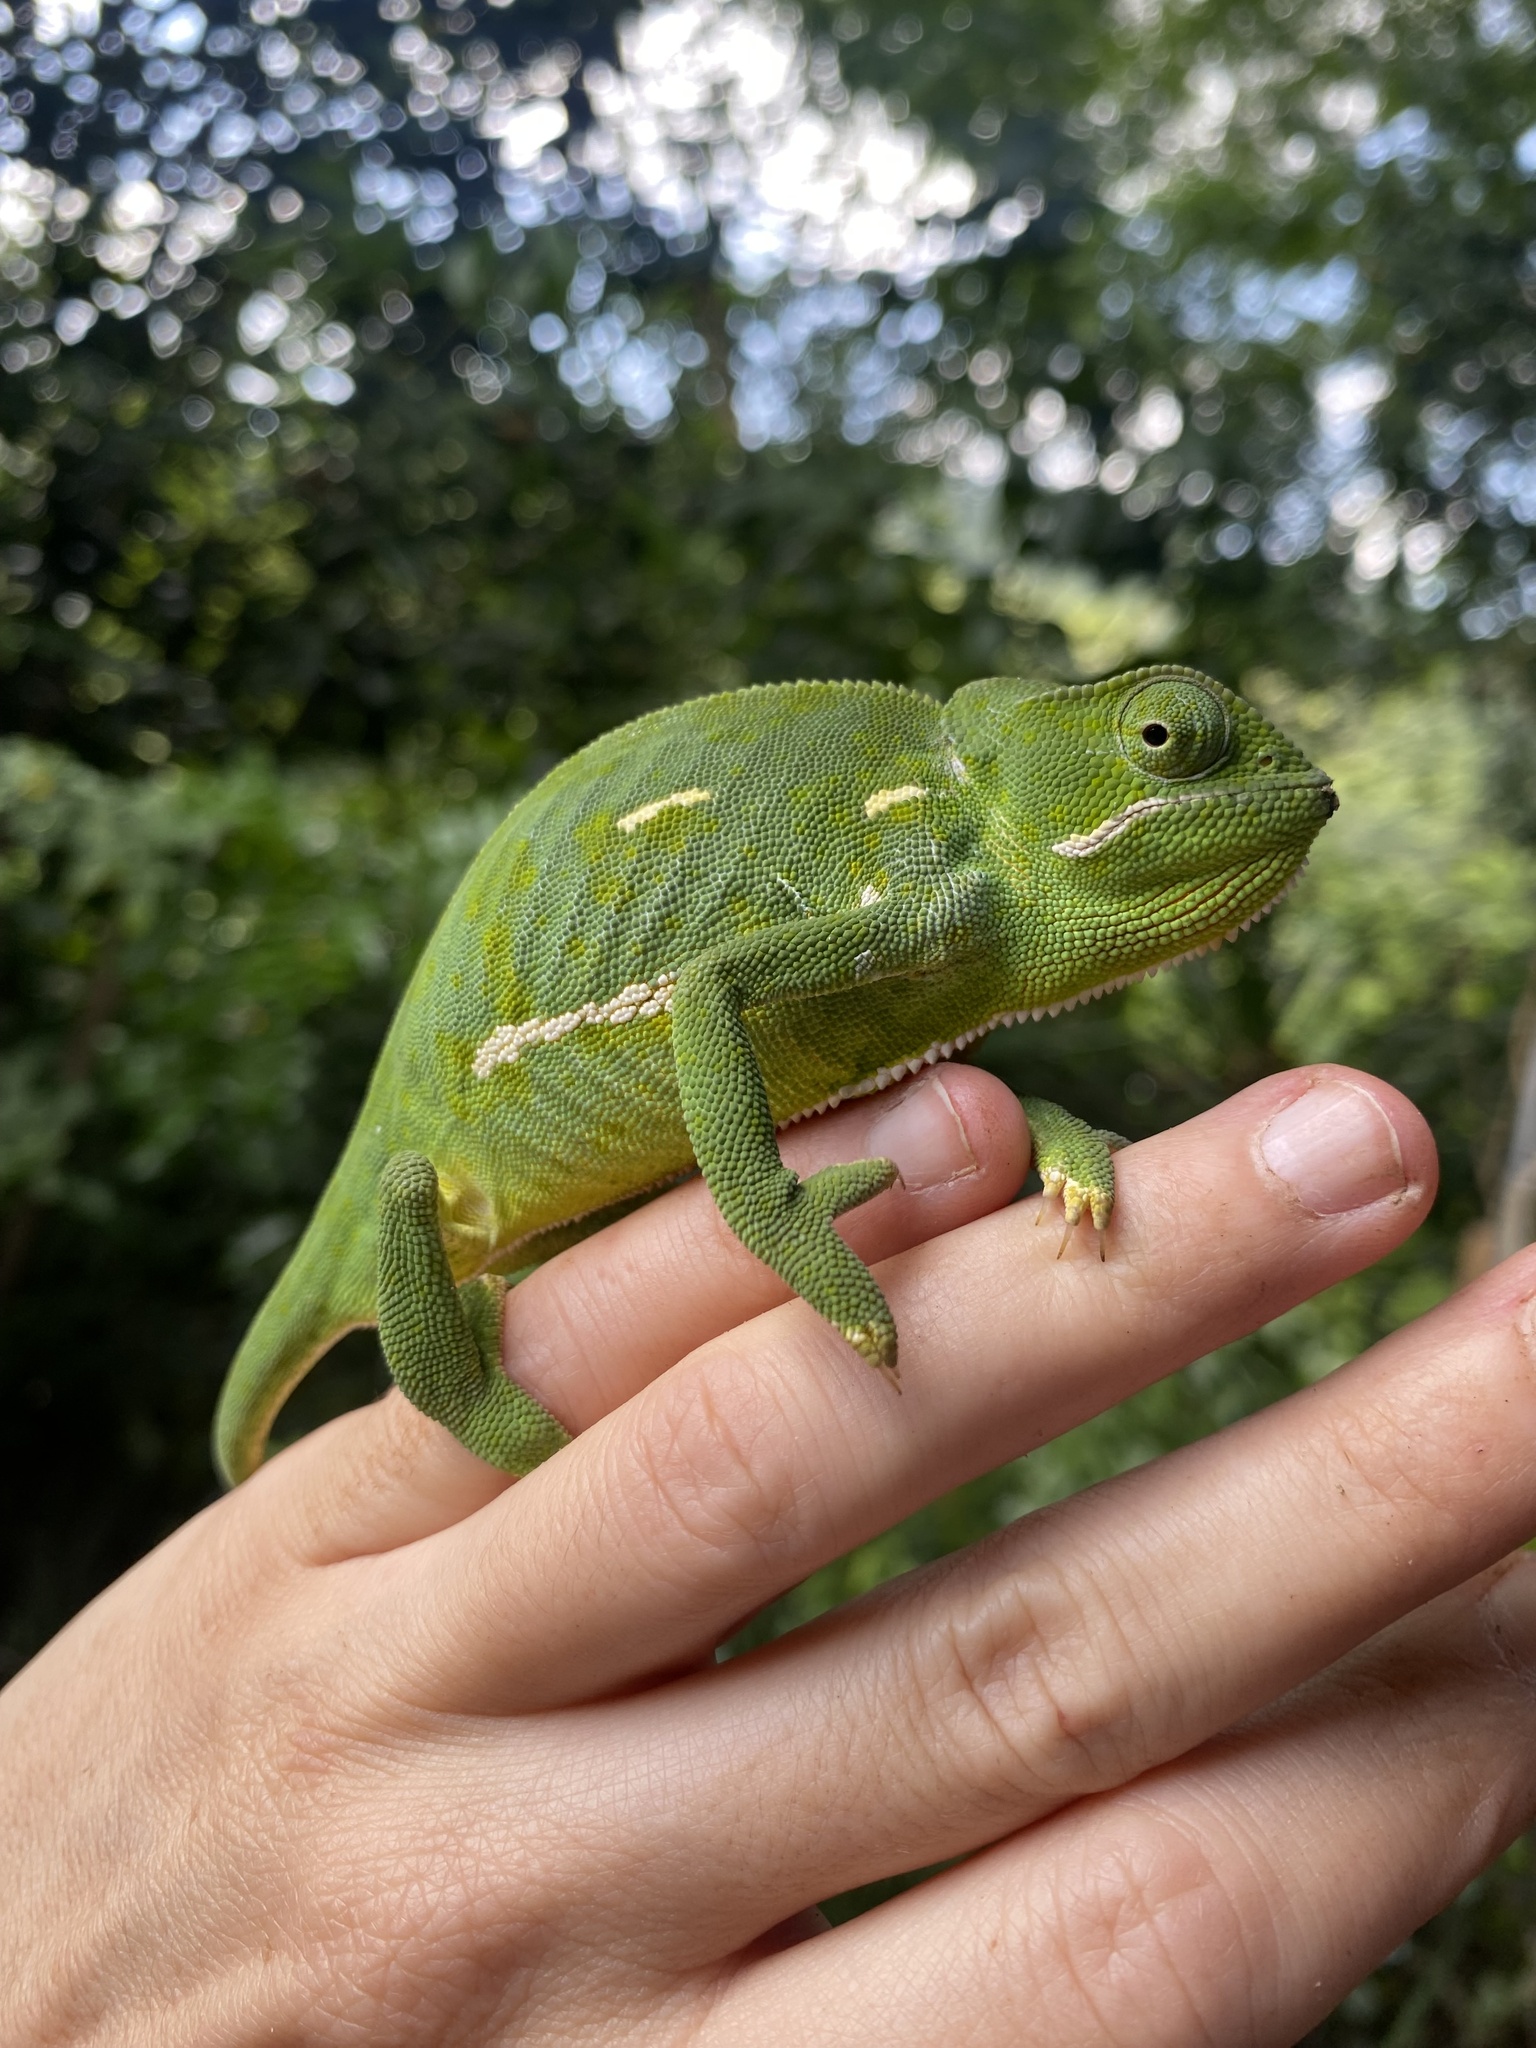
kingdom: Animalia
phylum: Chordata
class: Squamata
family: Chamaeleonidae
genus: Chamaeleo
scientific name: Chamaeleo dilepis
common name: Flapneck chameleon
